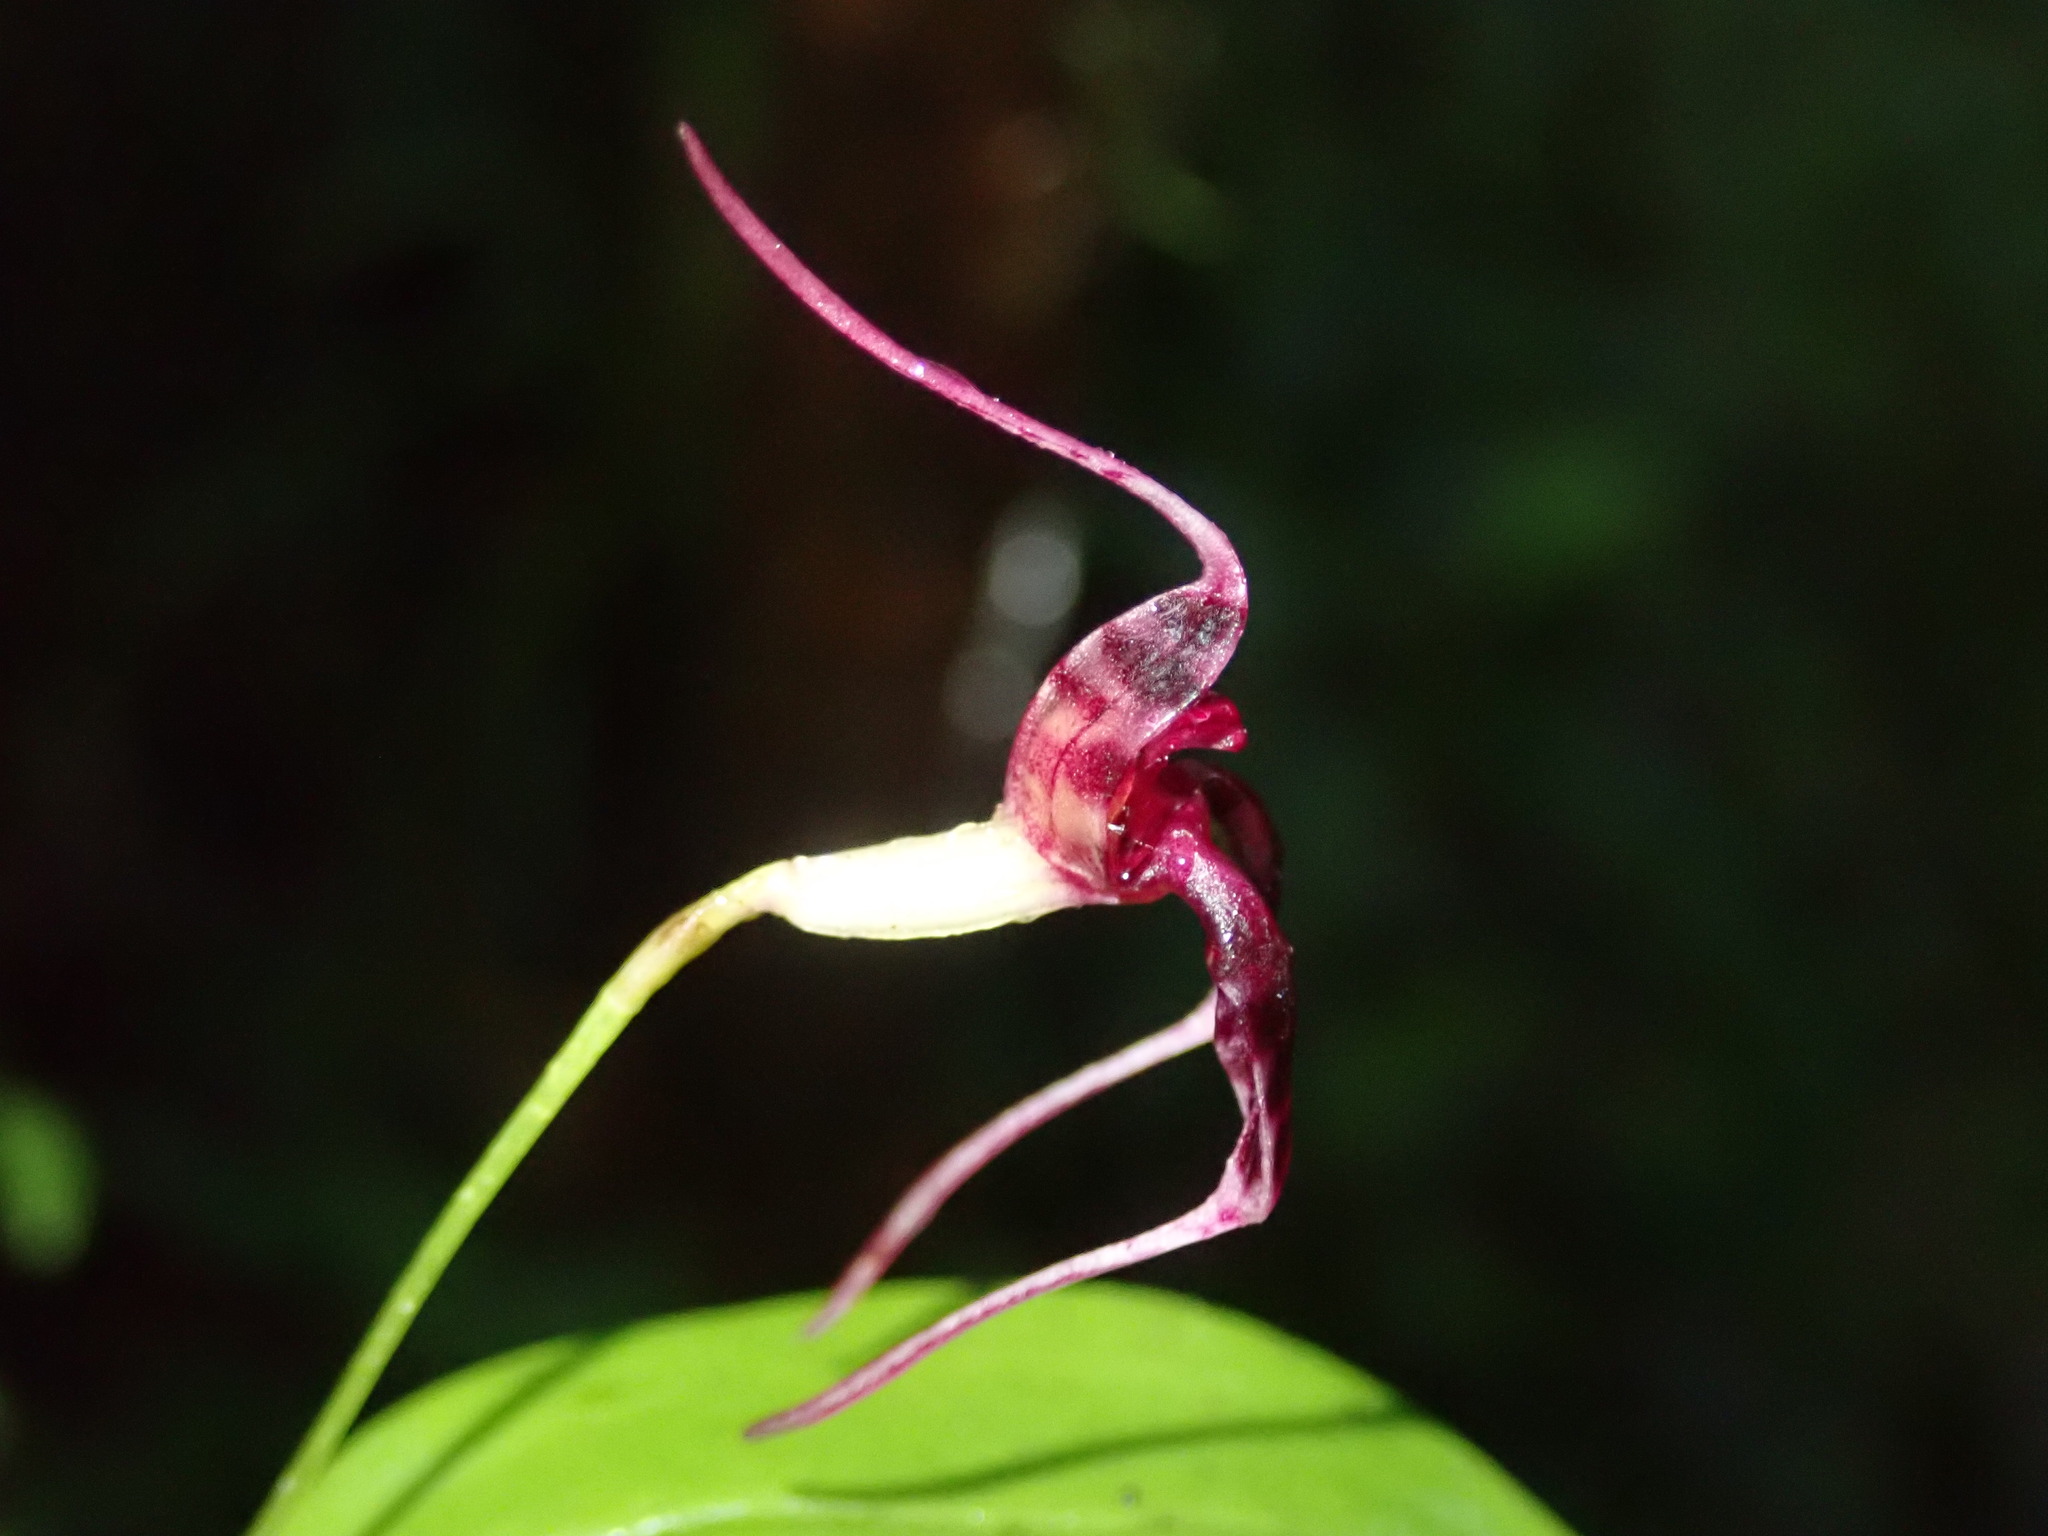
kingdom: Plantae
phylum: Tracheophyta
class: Liliopsida
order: Asparagales
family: Orchidaceae
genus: Masdevallia
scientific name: Masdevallia ximenae
